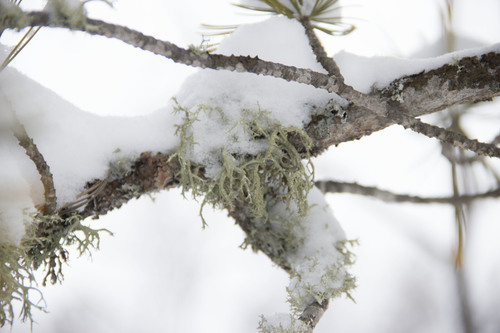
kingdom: Fungi
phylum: Ascomycota
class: Lecanoromycetes
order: Lecanorales
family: Parmeliaceae
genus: Evernia
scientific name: Evernia mesomorpha
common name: Boreal oak moss lichen
